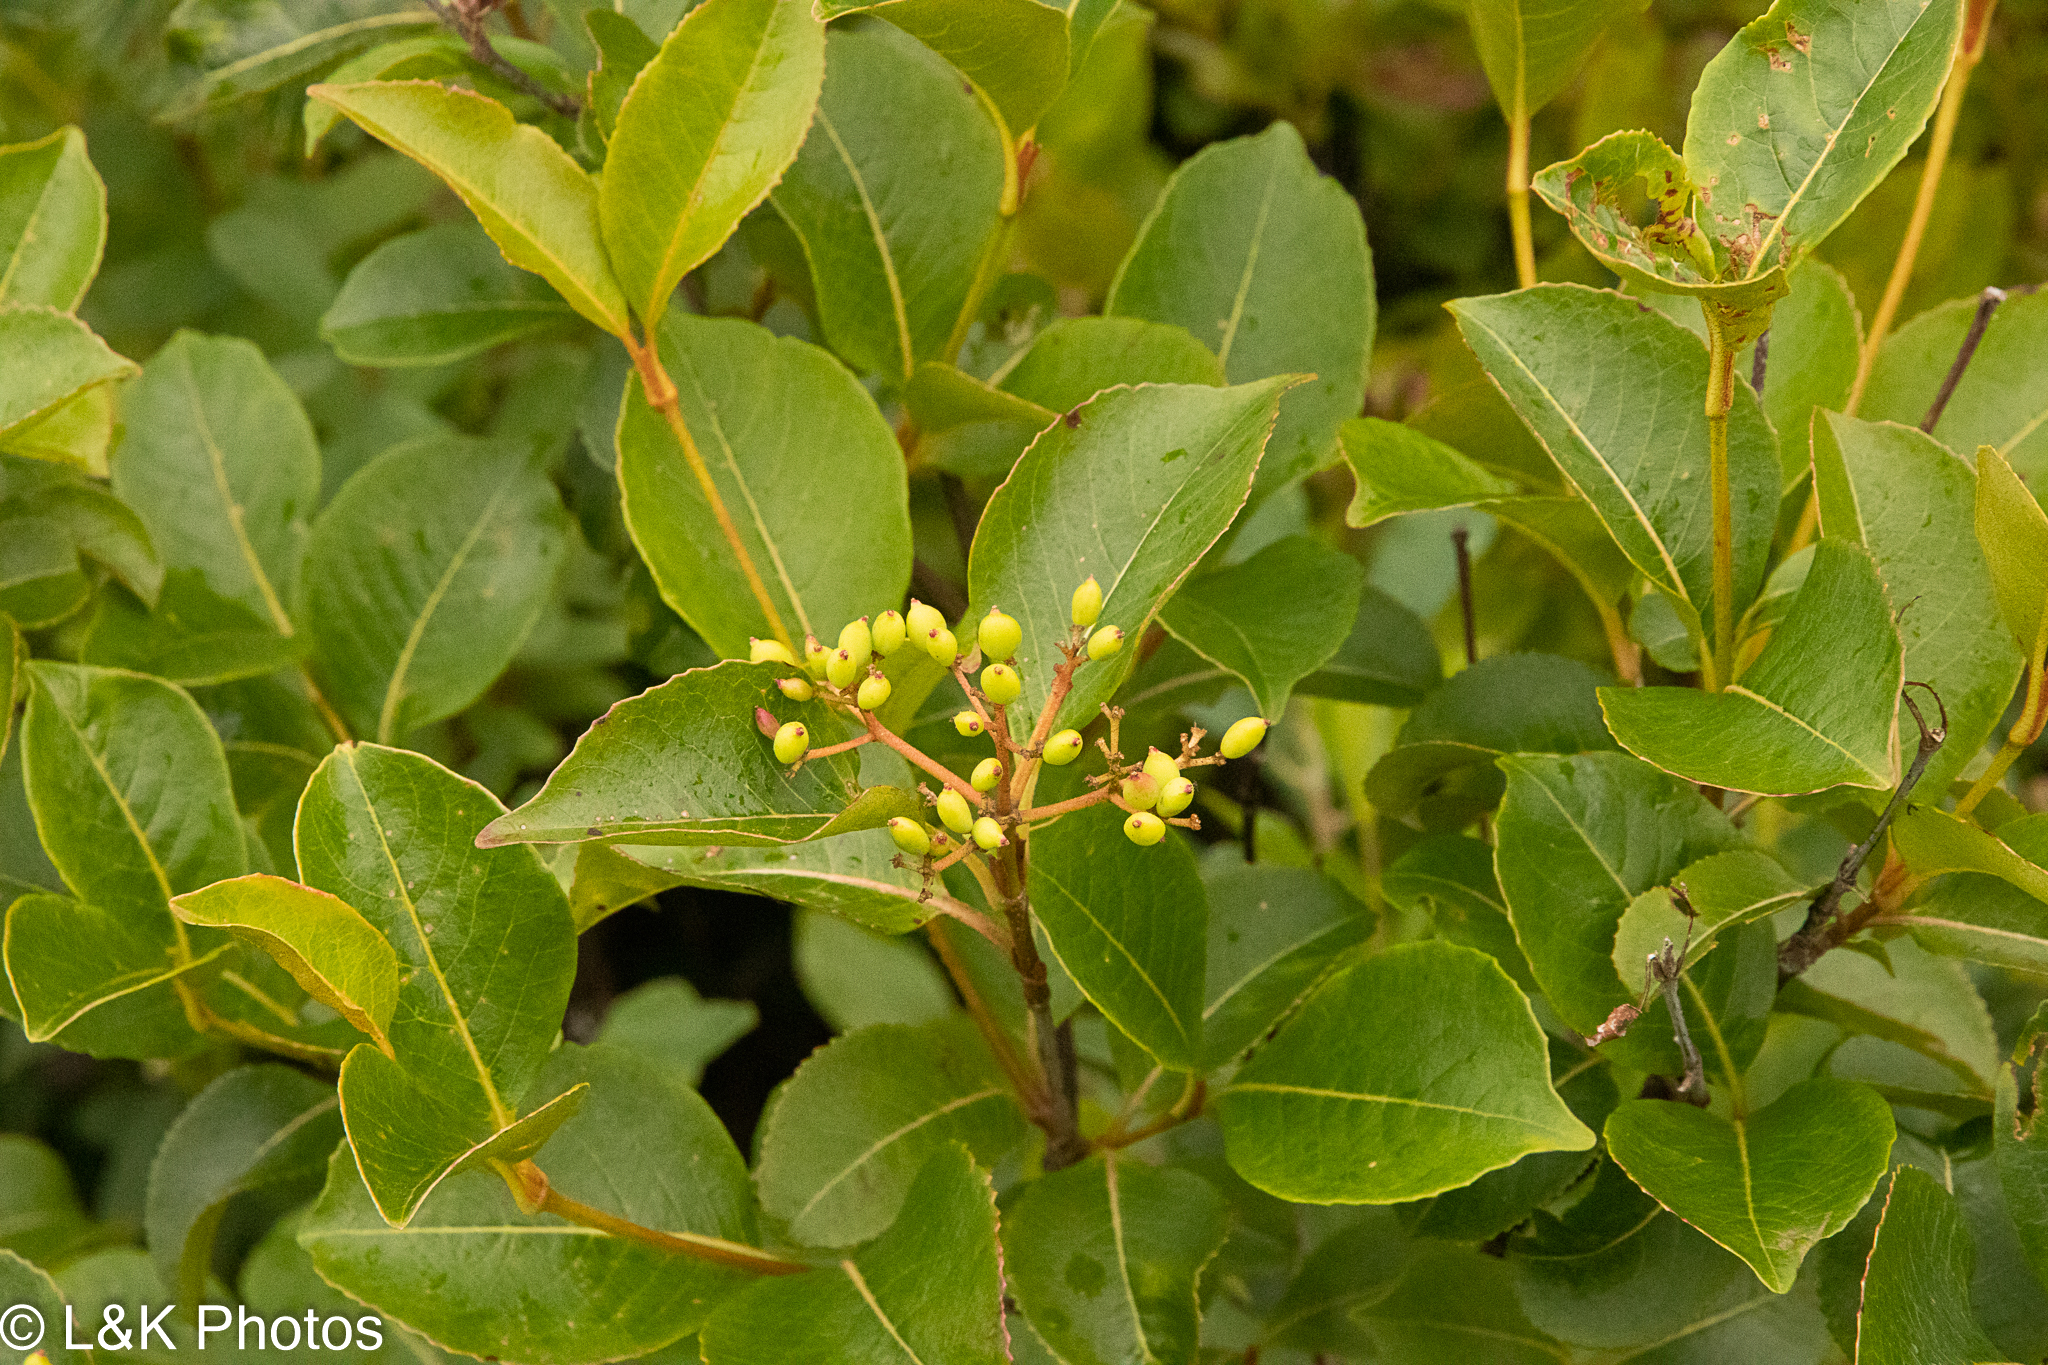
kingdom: Plantae
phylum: Tracheophyta
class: Magnoliopsida
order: Dipsacales
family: Viburnaceae
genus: Viburnum
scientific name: Viburnum cassinoides
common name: Swamp haw
